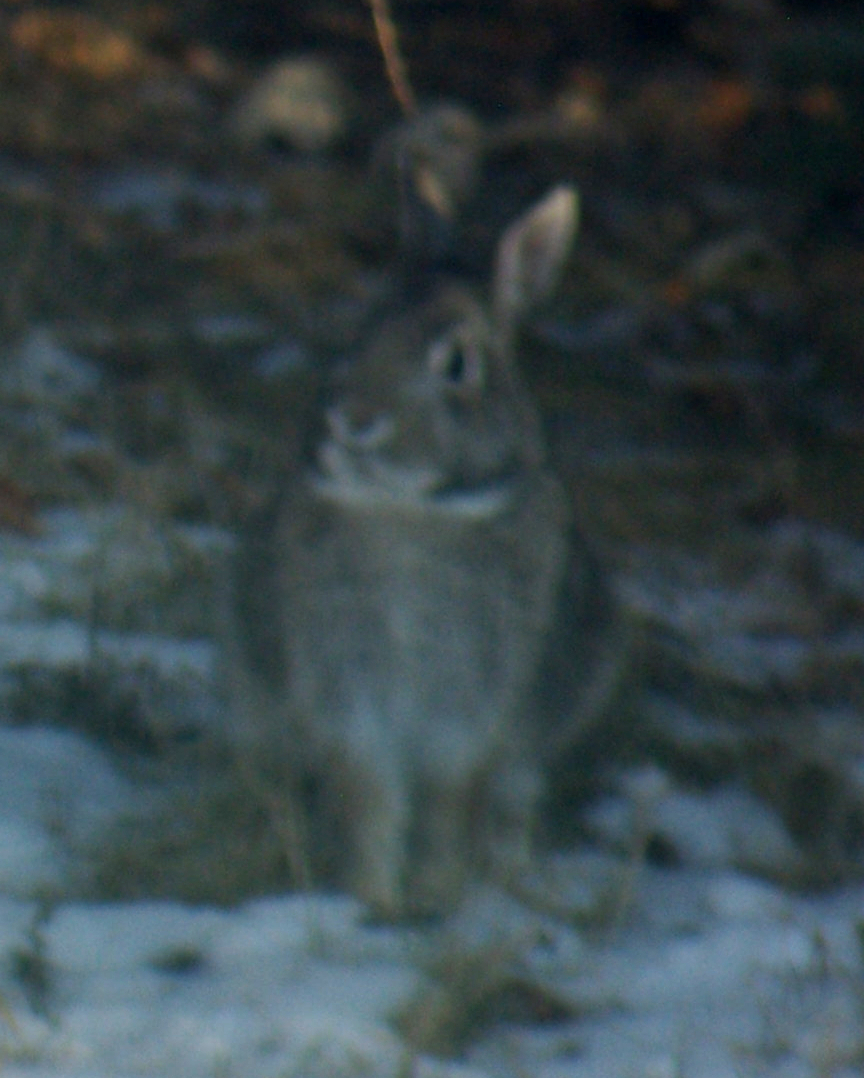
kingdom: Animalia
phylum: Chordata
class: Mammalia
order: Lagomorpha
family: Leporidae
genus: Sylvilagus
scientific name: Sylvilagus floridanus
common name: Eastern cottontail
